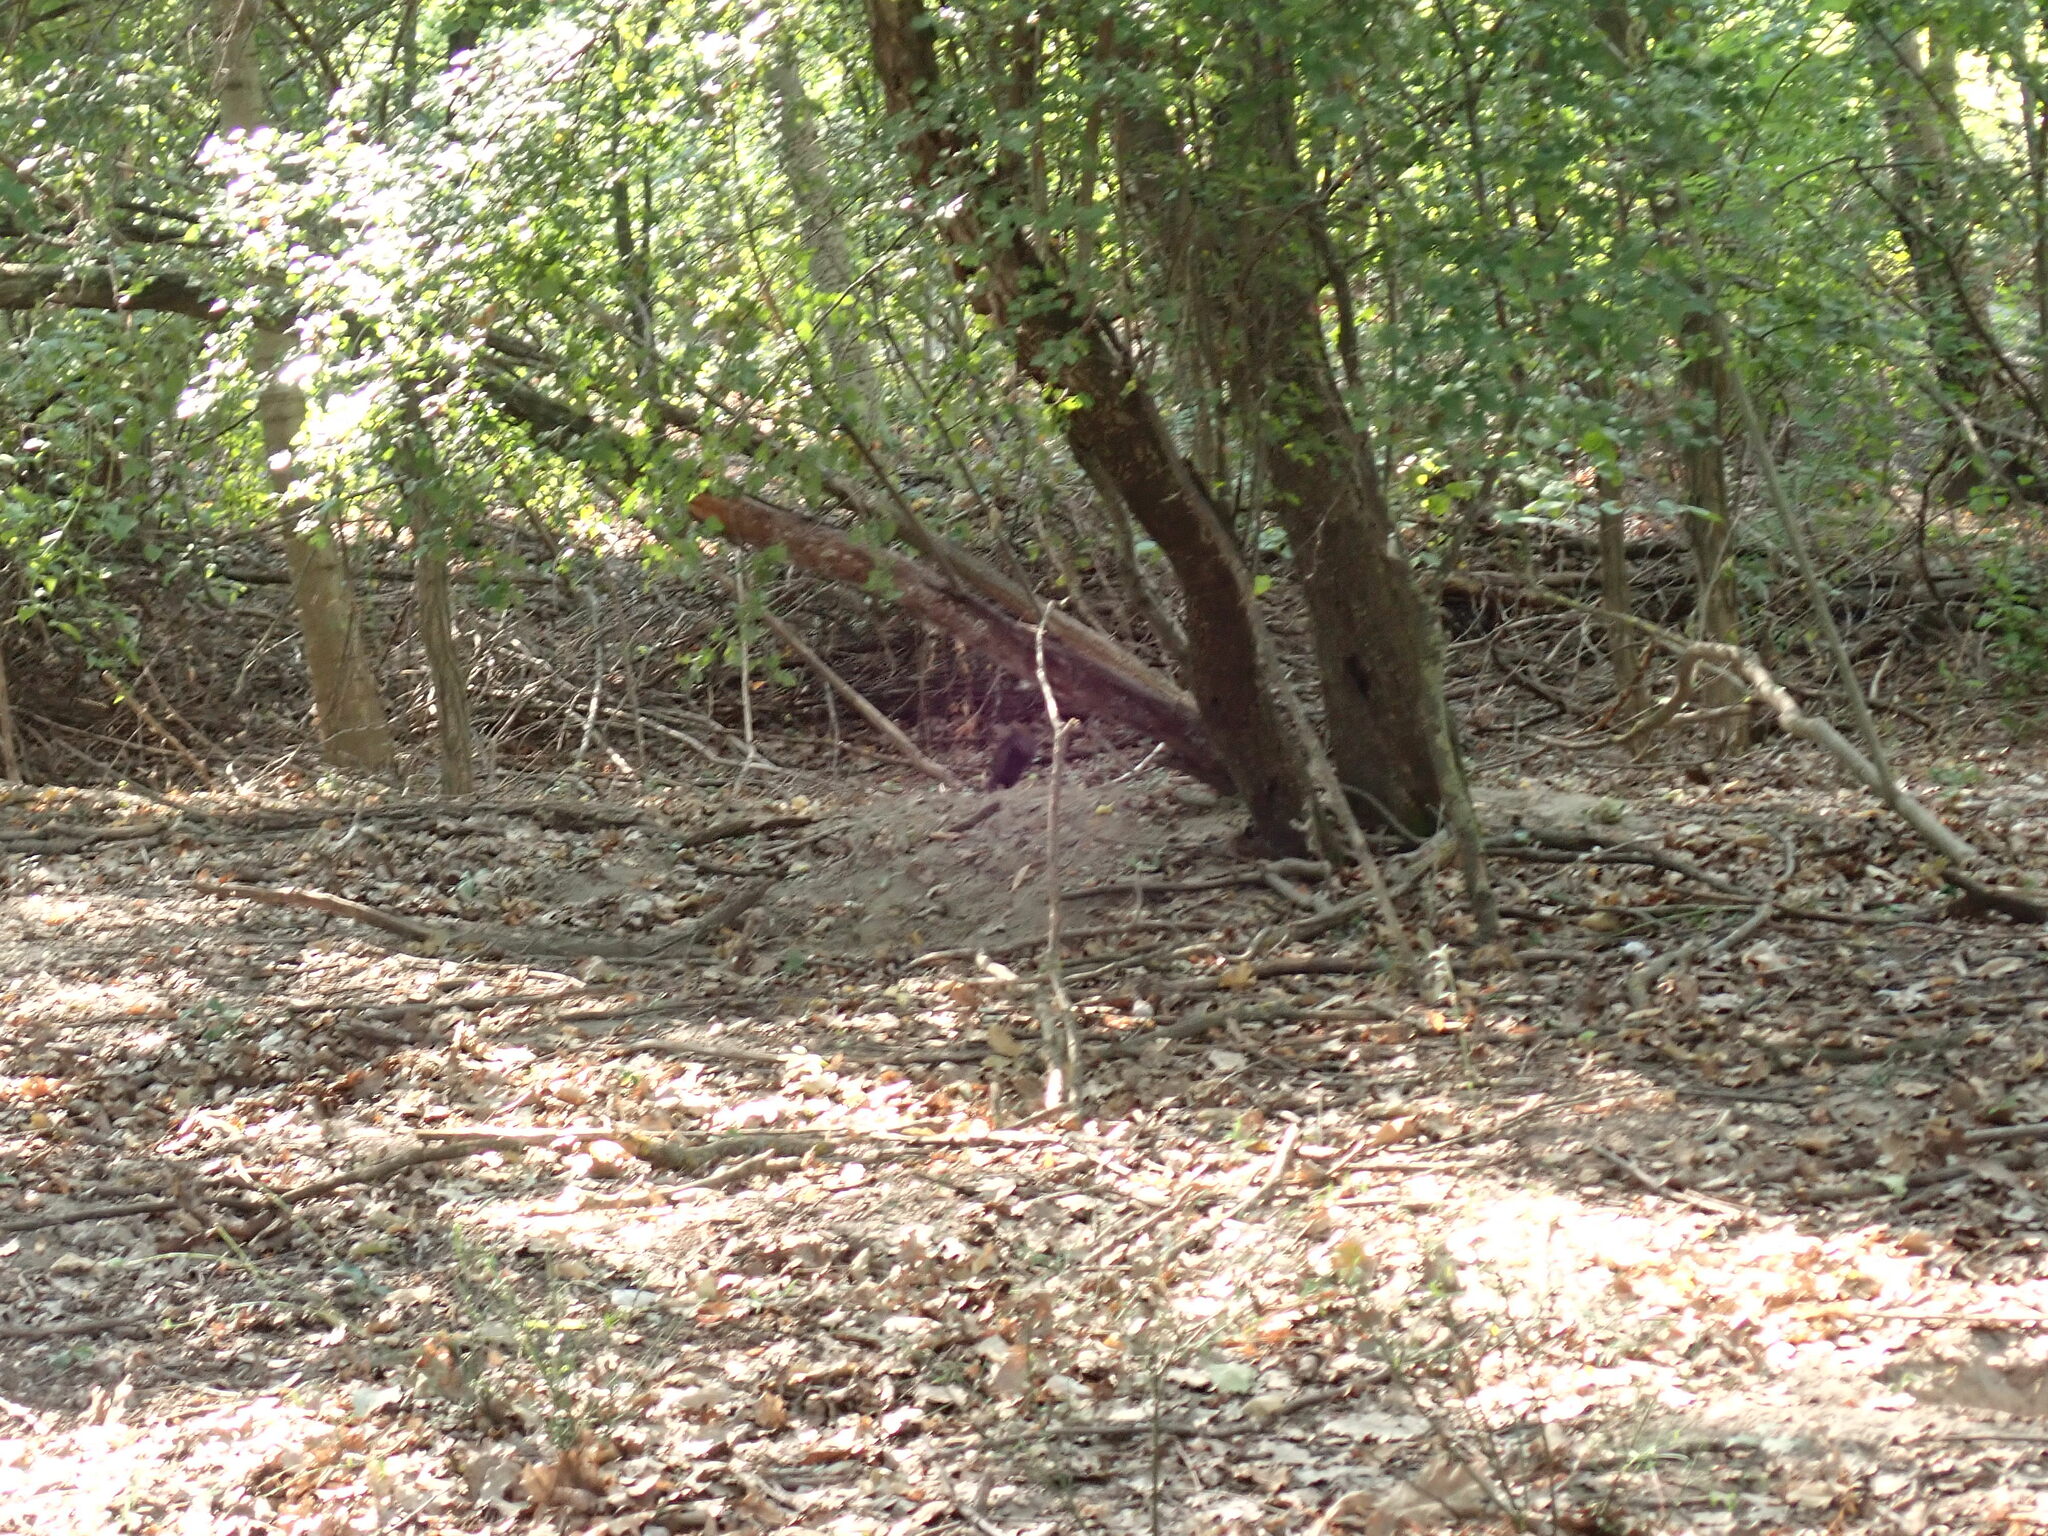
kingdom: Animalia
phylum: Chordata
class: Mammalia
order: Rodentia
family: Sciuridae
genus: Sciurus
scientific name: Sciurus vulgaris
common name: Eurasian red squirrel
